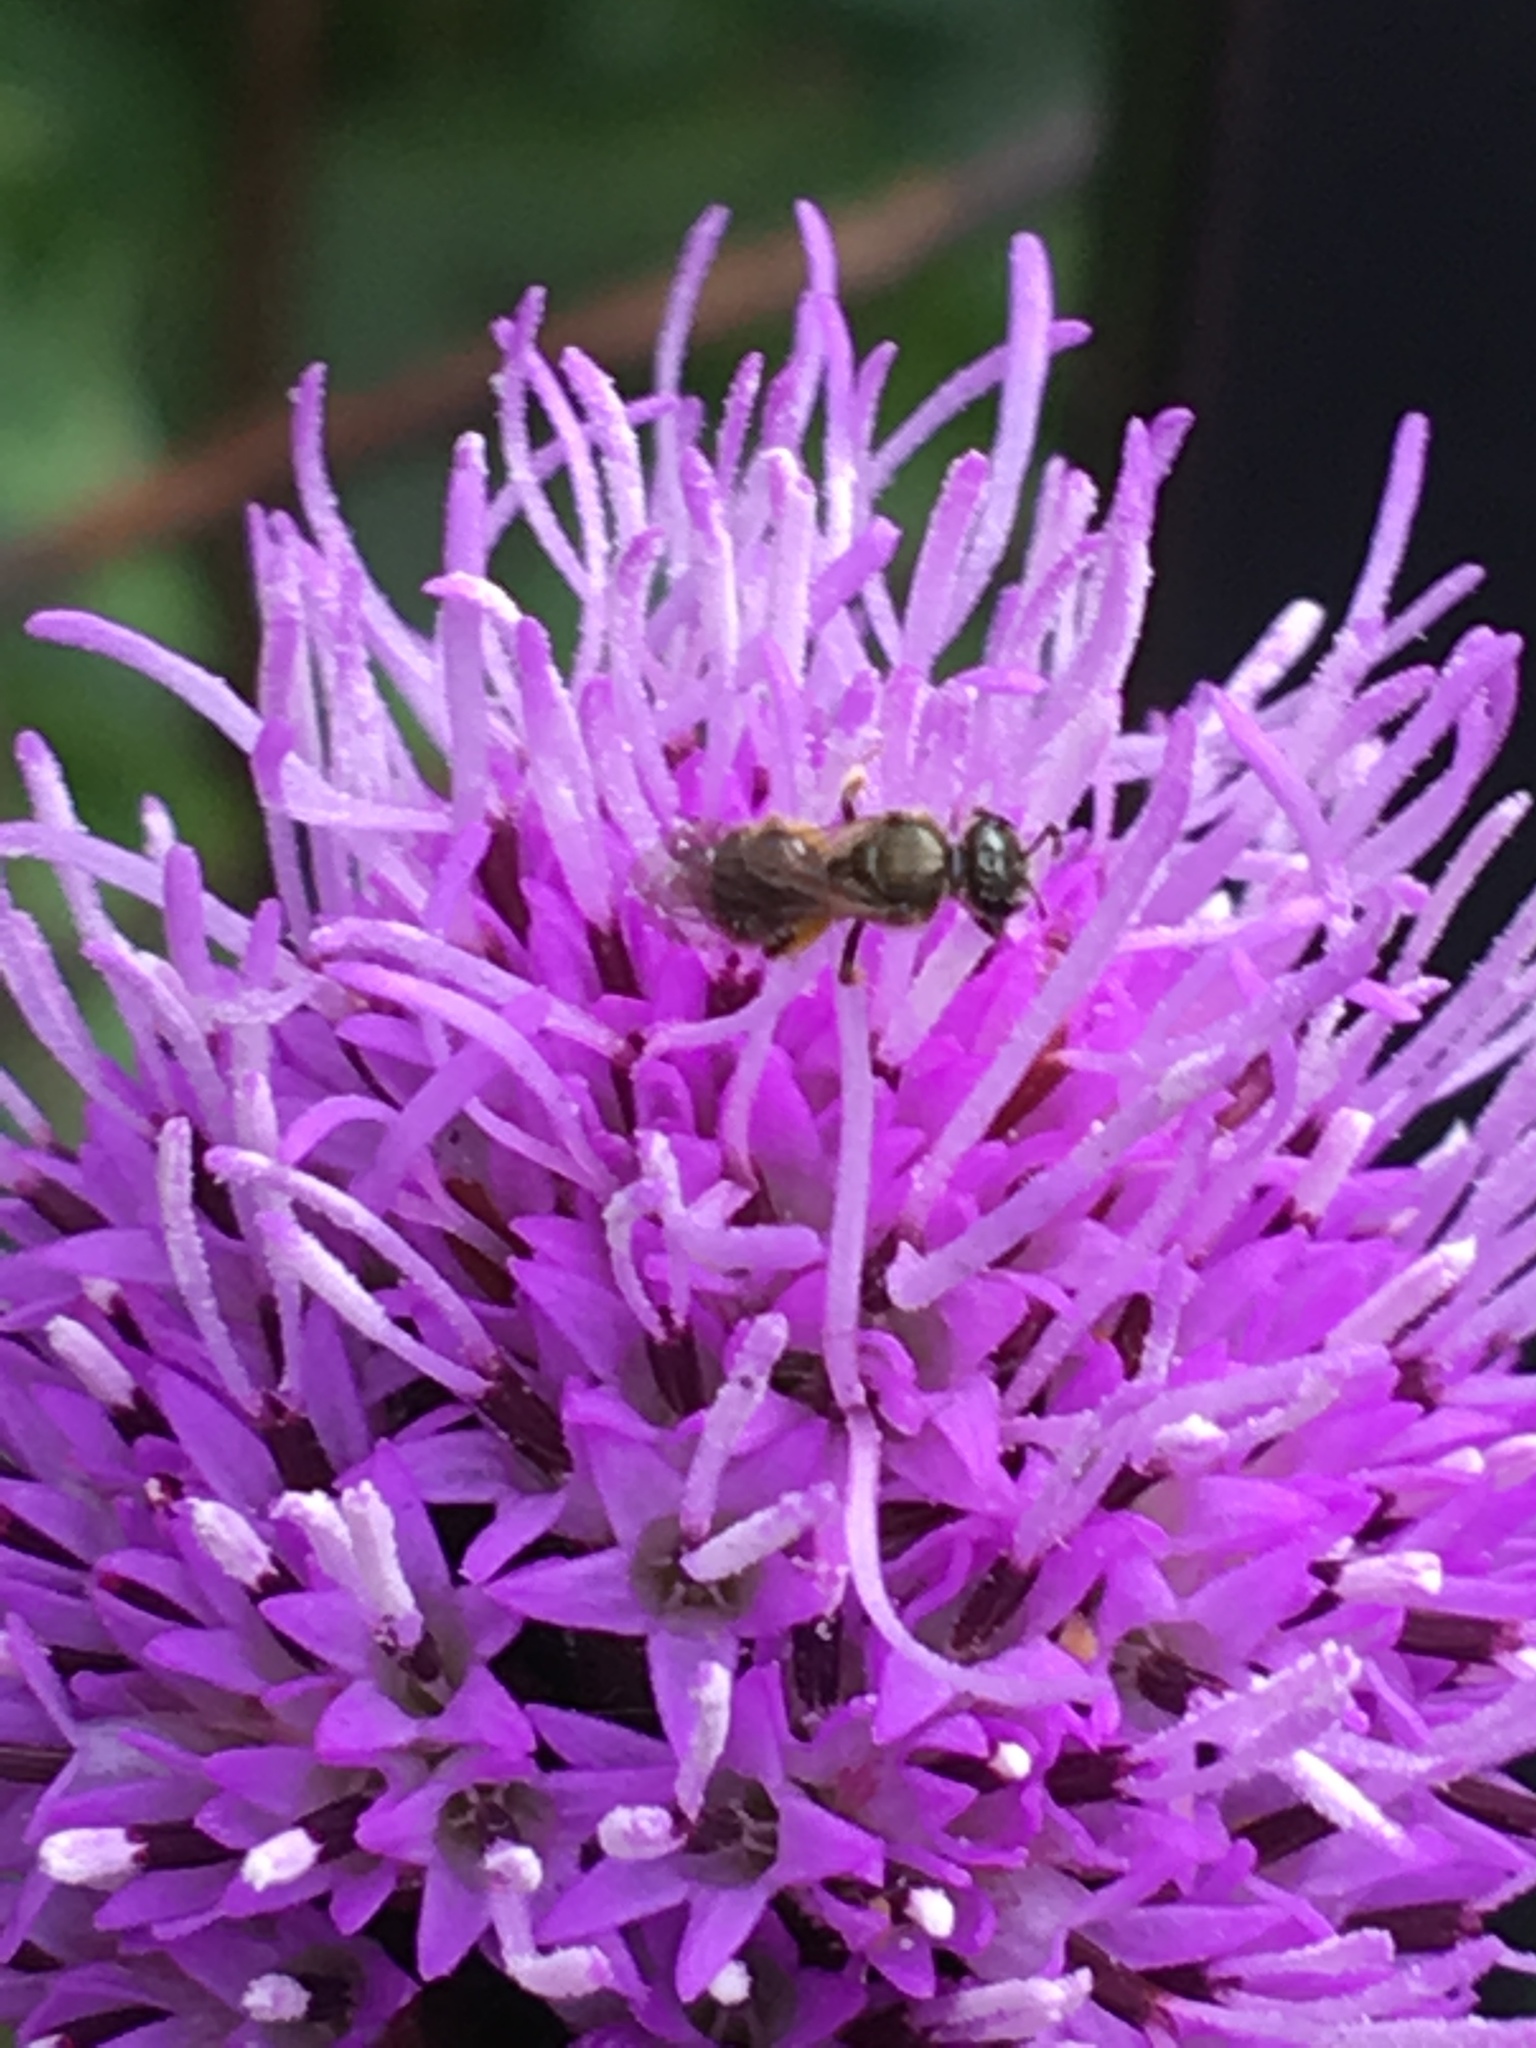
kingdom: Animalia
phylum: Arthropoda
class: Insecta
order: Hymenoptera
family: Halictidae
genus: Dialictus
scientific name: Dialictus
